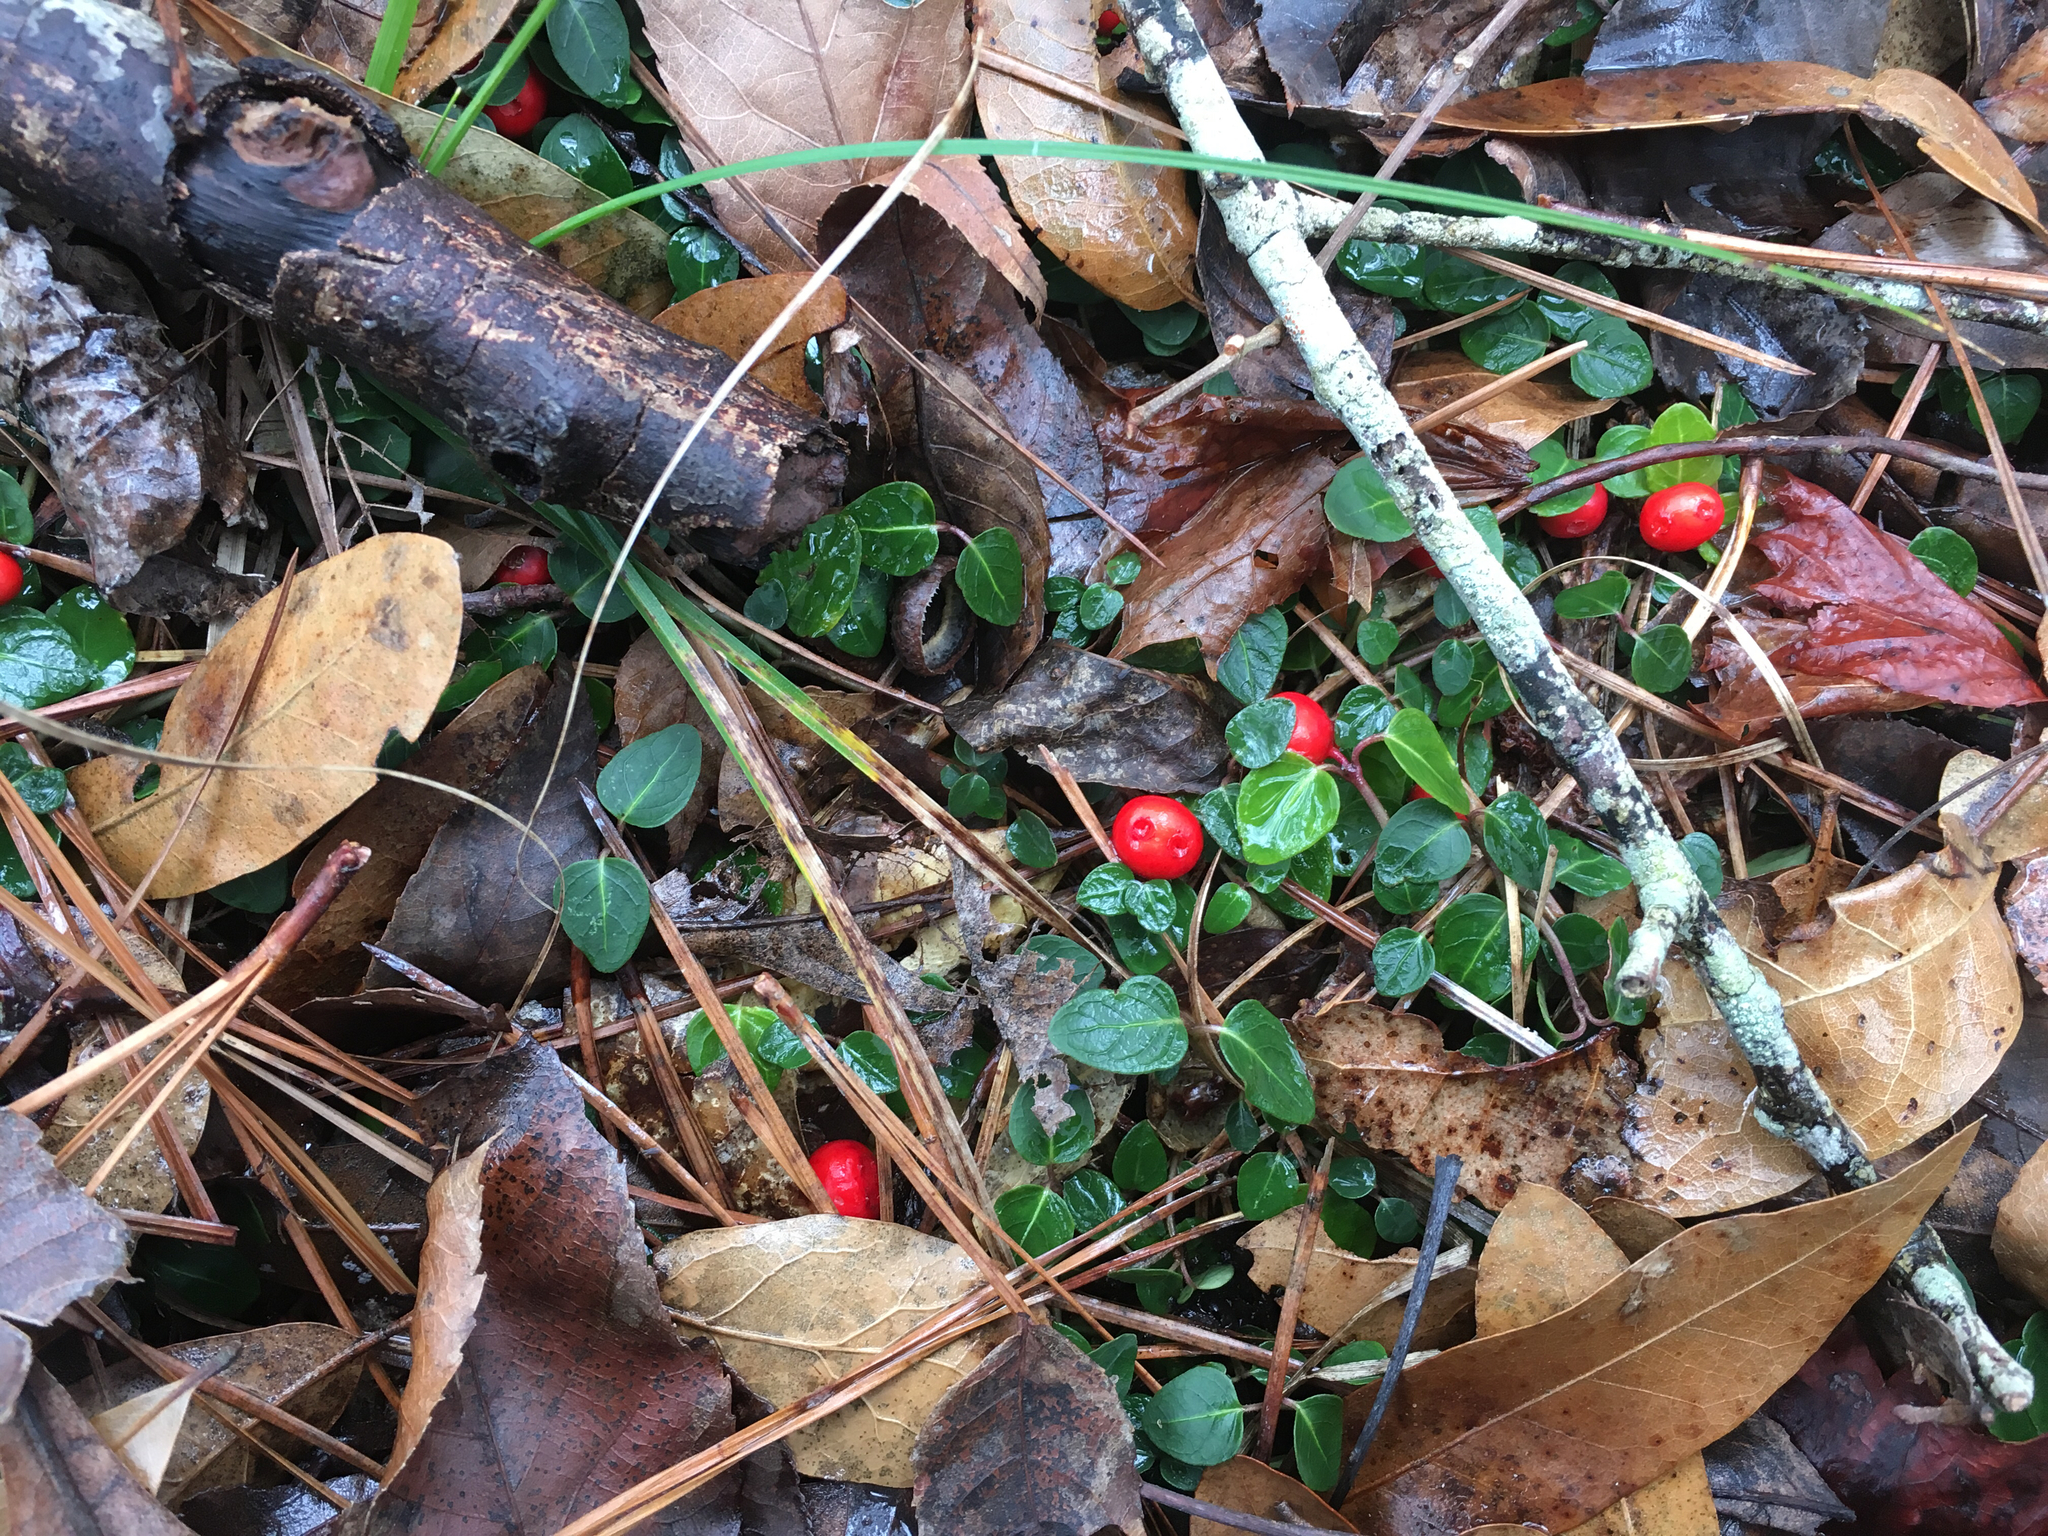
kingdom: Plantae
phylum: Tracheophyta
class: Magnoliopsida
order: Gentianales
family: Rubiaceae
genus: Mitchella
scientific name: Mitchella repens
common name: Partridge-berry
